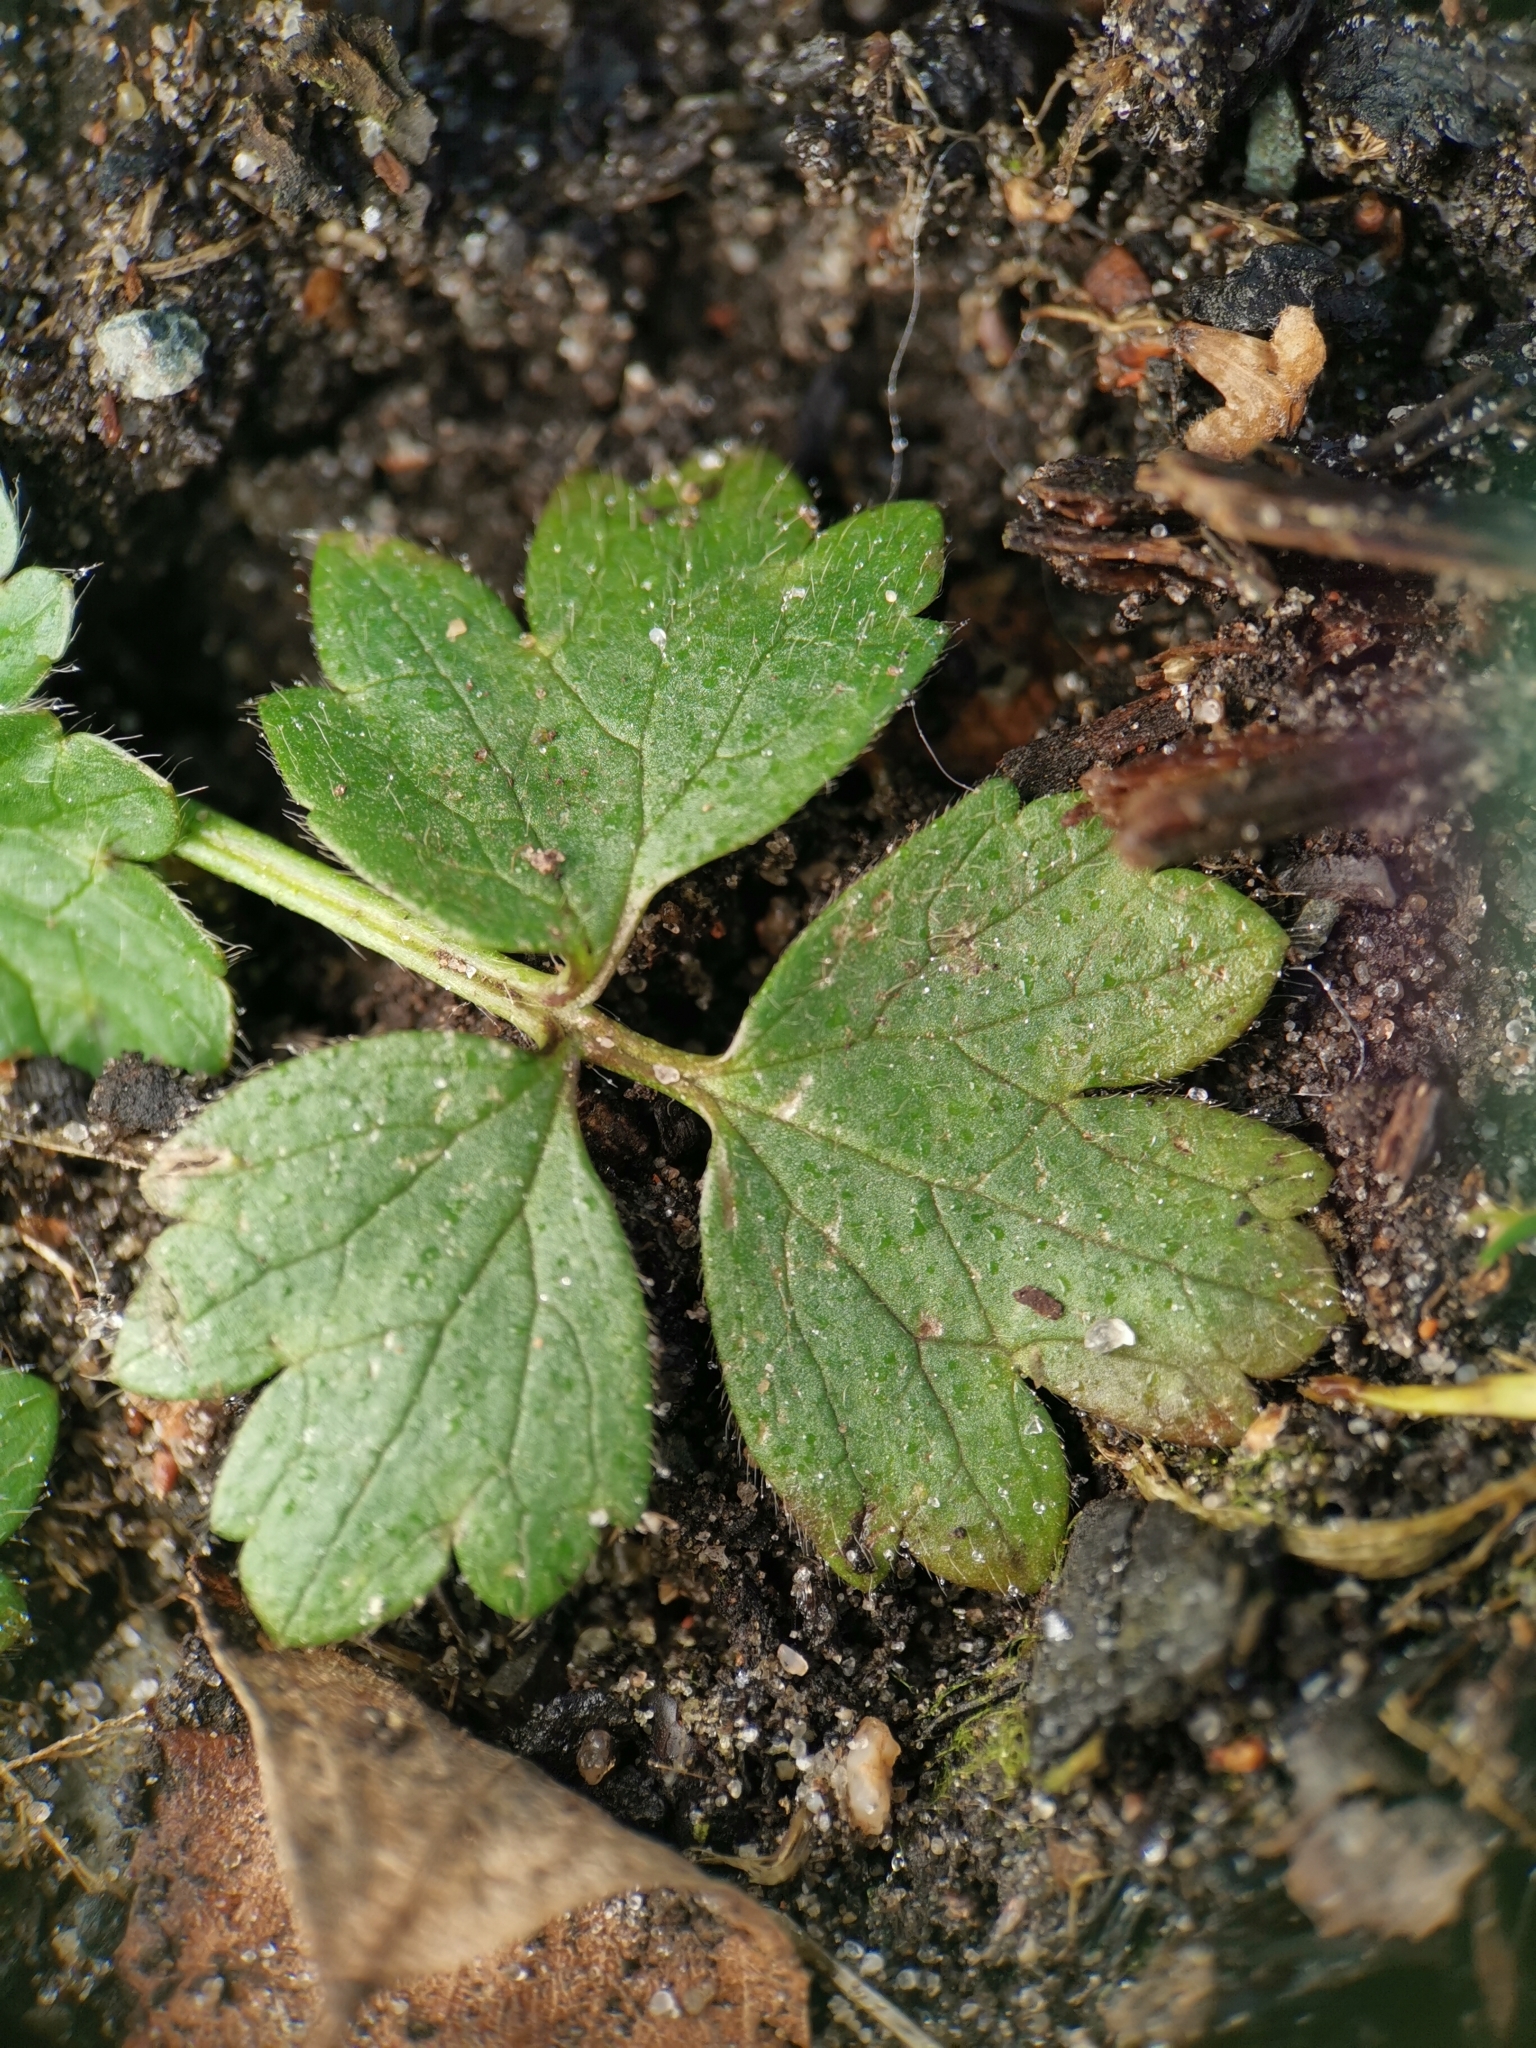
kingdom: Plantae
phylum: Tracheophyta
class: Magnoliopsida
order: Ranunculales
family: Ranunculaceae
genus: Ranunculus
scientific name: Ranunculus repens
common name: Creeping buttercup
